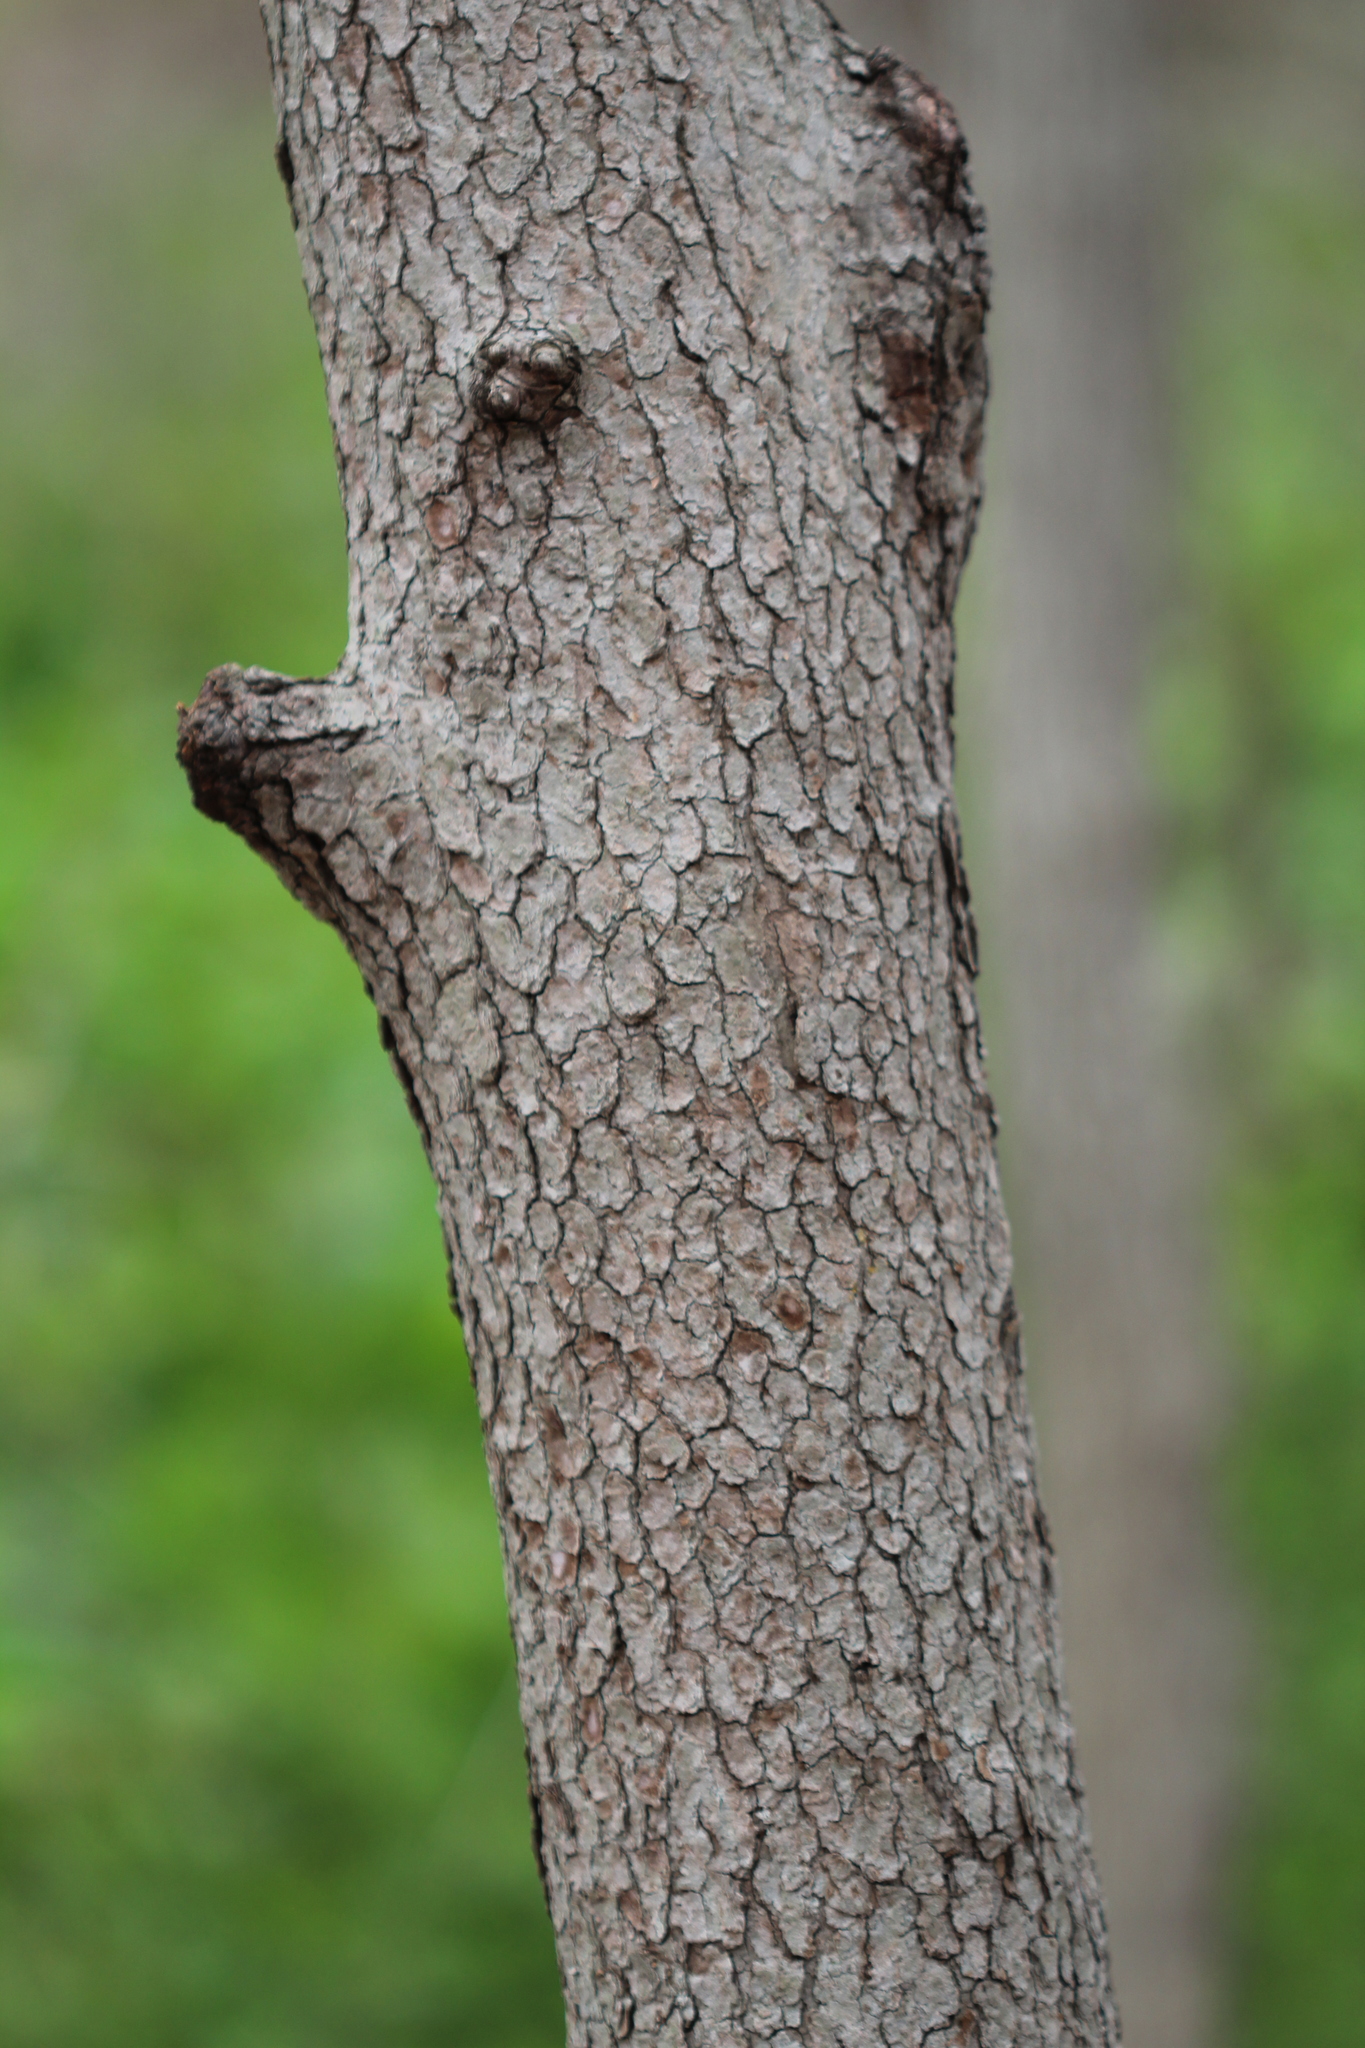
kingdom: Plantae
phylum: Tracheophyta
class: Magnoliopsida
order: Cornales
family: Cornaceae
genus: Cornus
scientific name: Cornus florida
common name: Flowering dogwood
